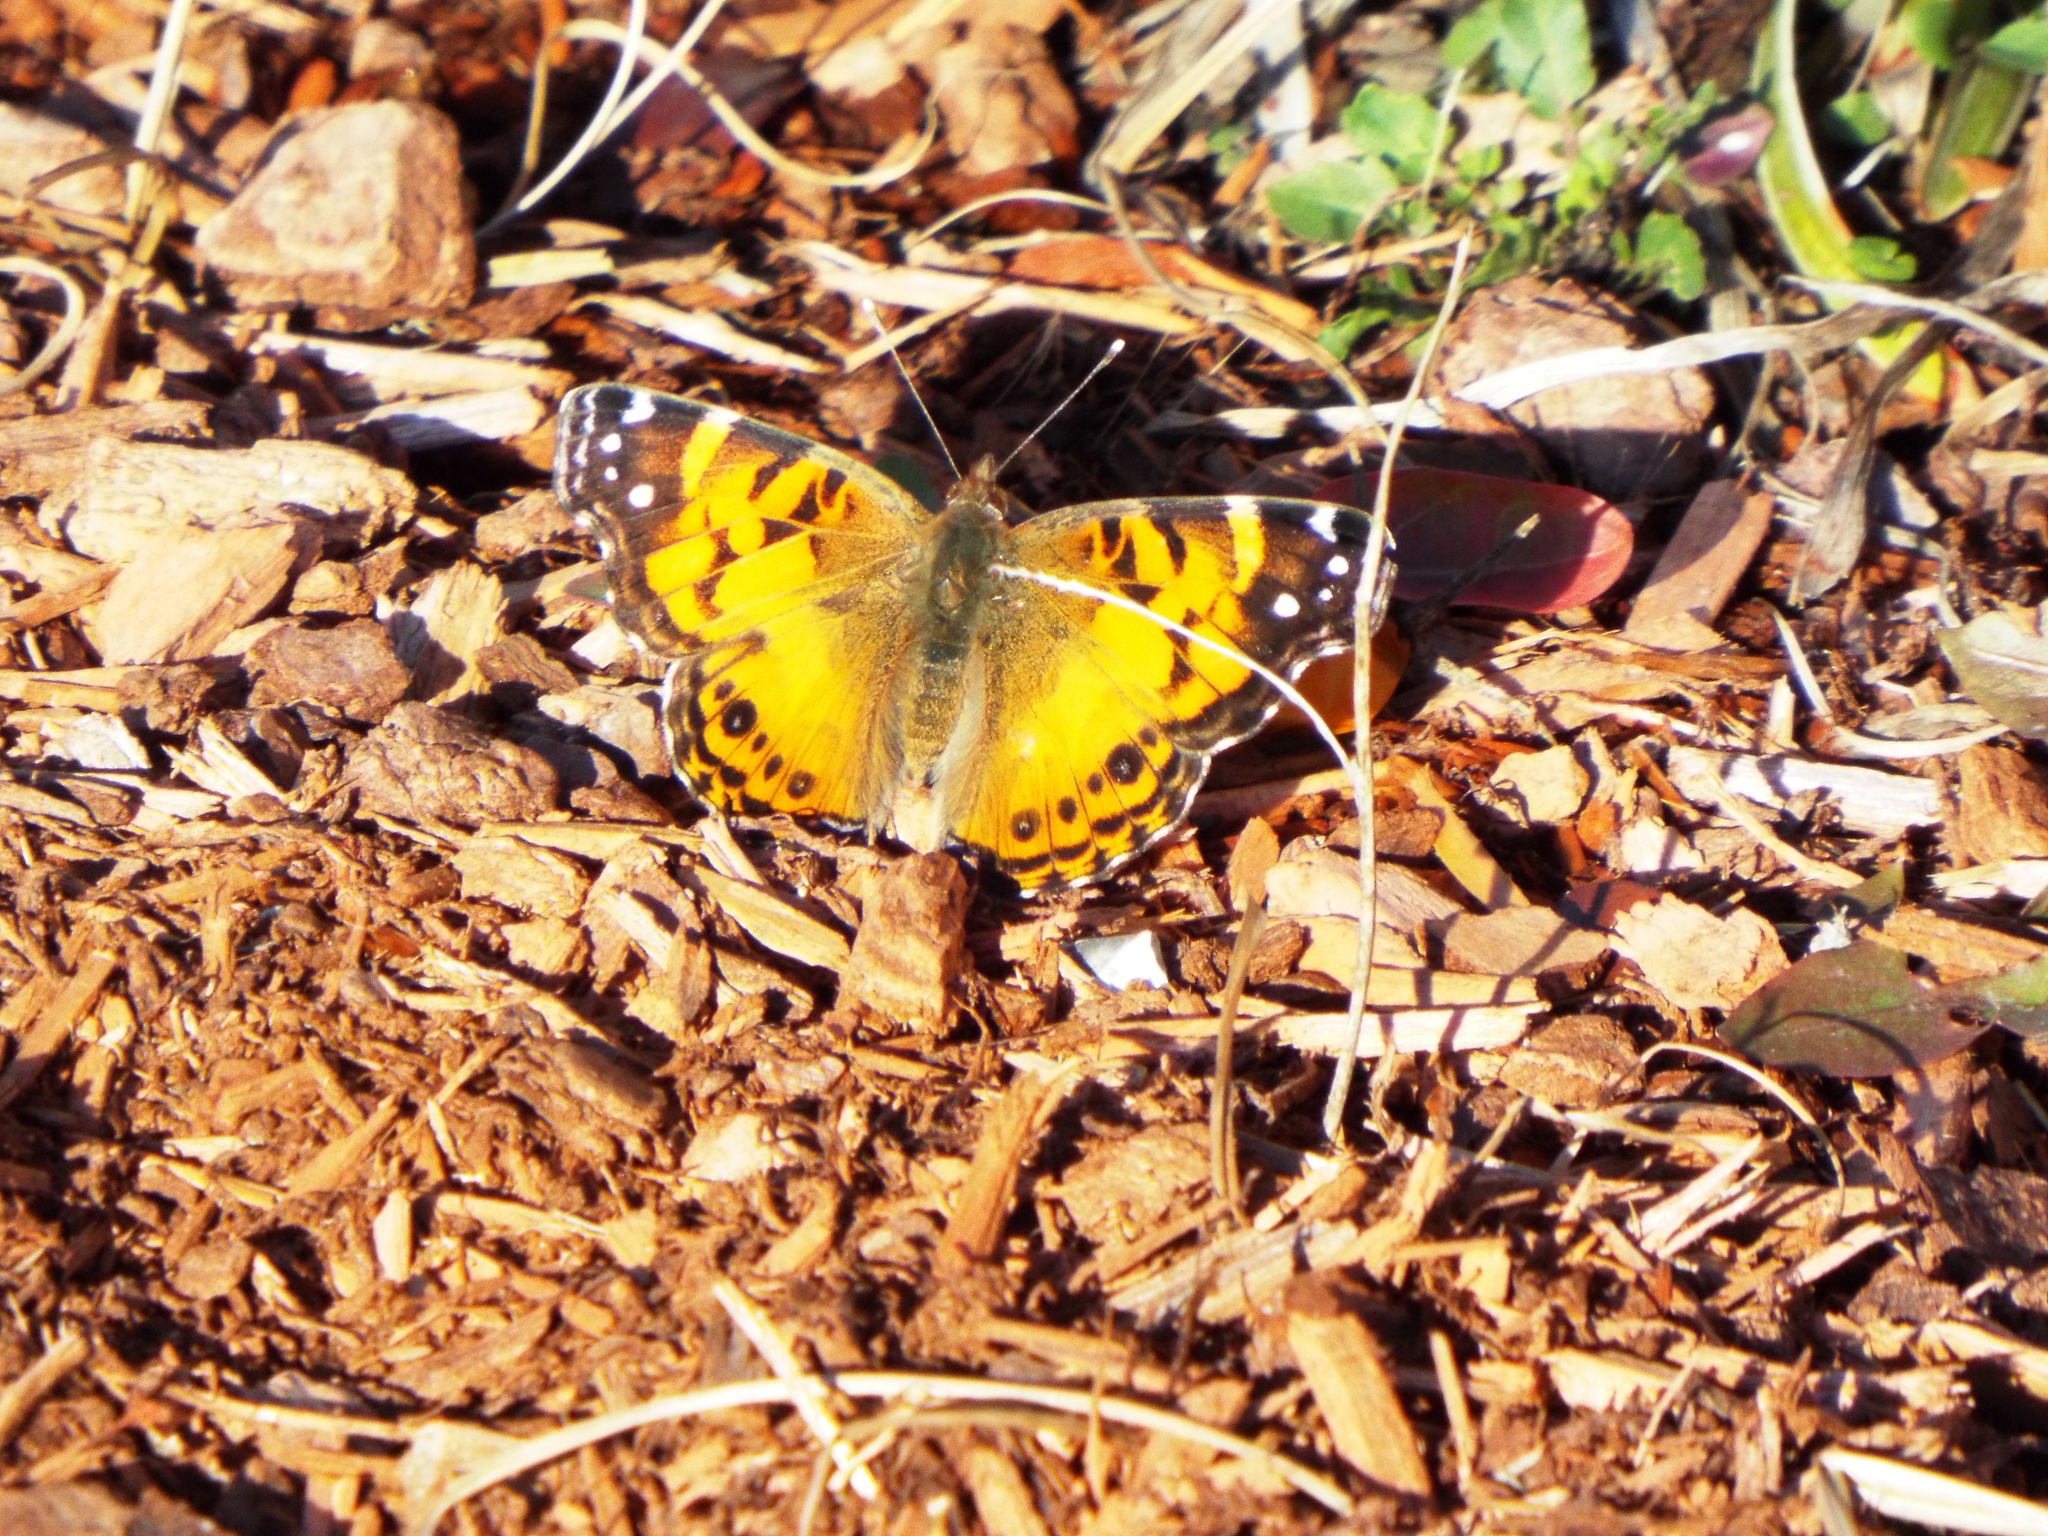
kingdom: Animalia
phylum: Arthropoda
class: Insecta
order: Lepidoptera
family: Nymphalidae
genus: Vanessa
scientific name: Vanessa virginiensis
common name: American lady
